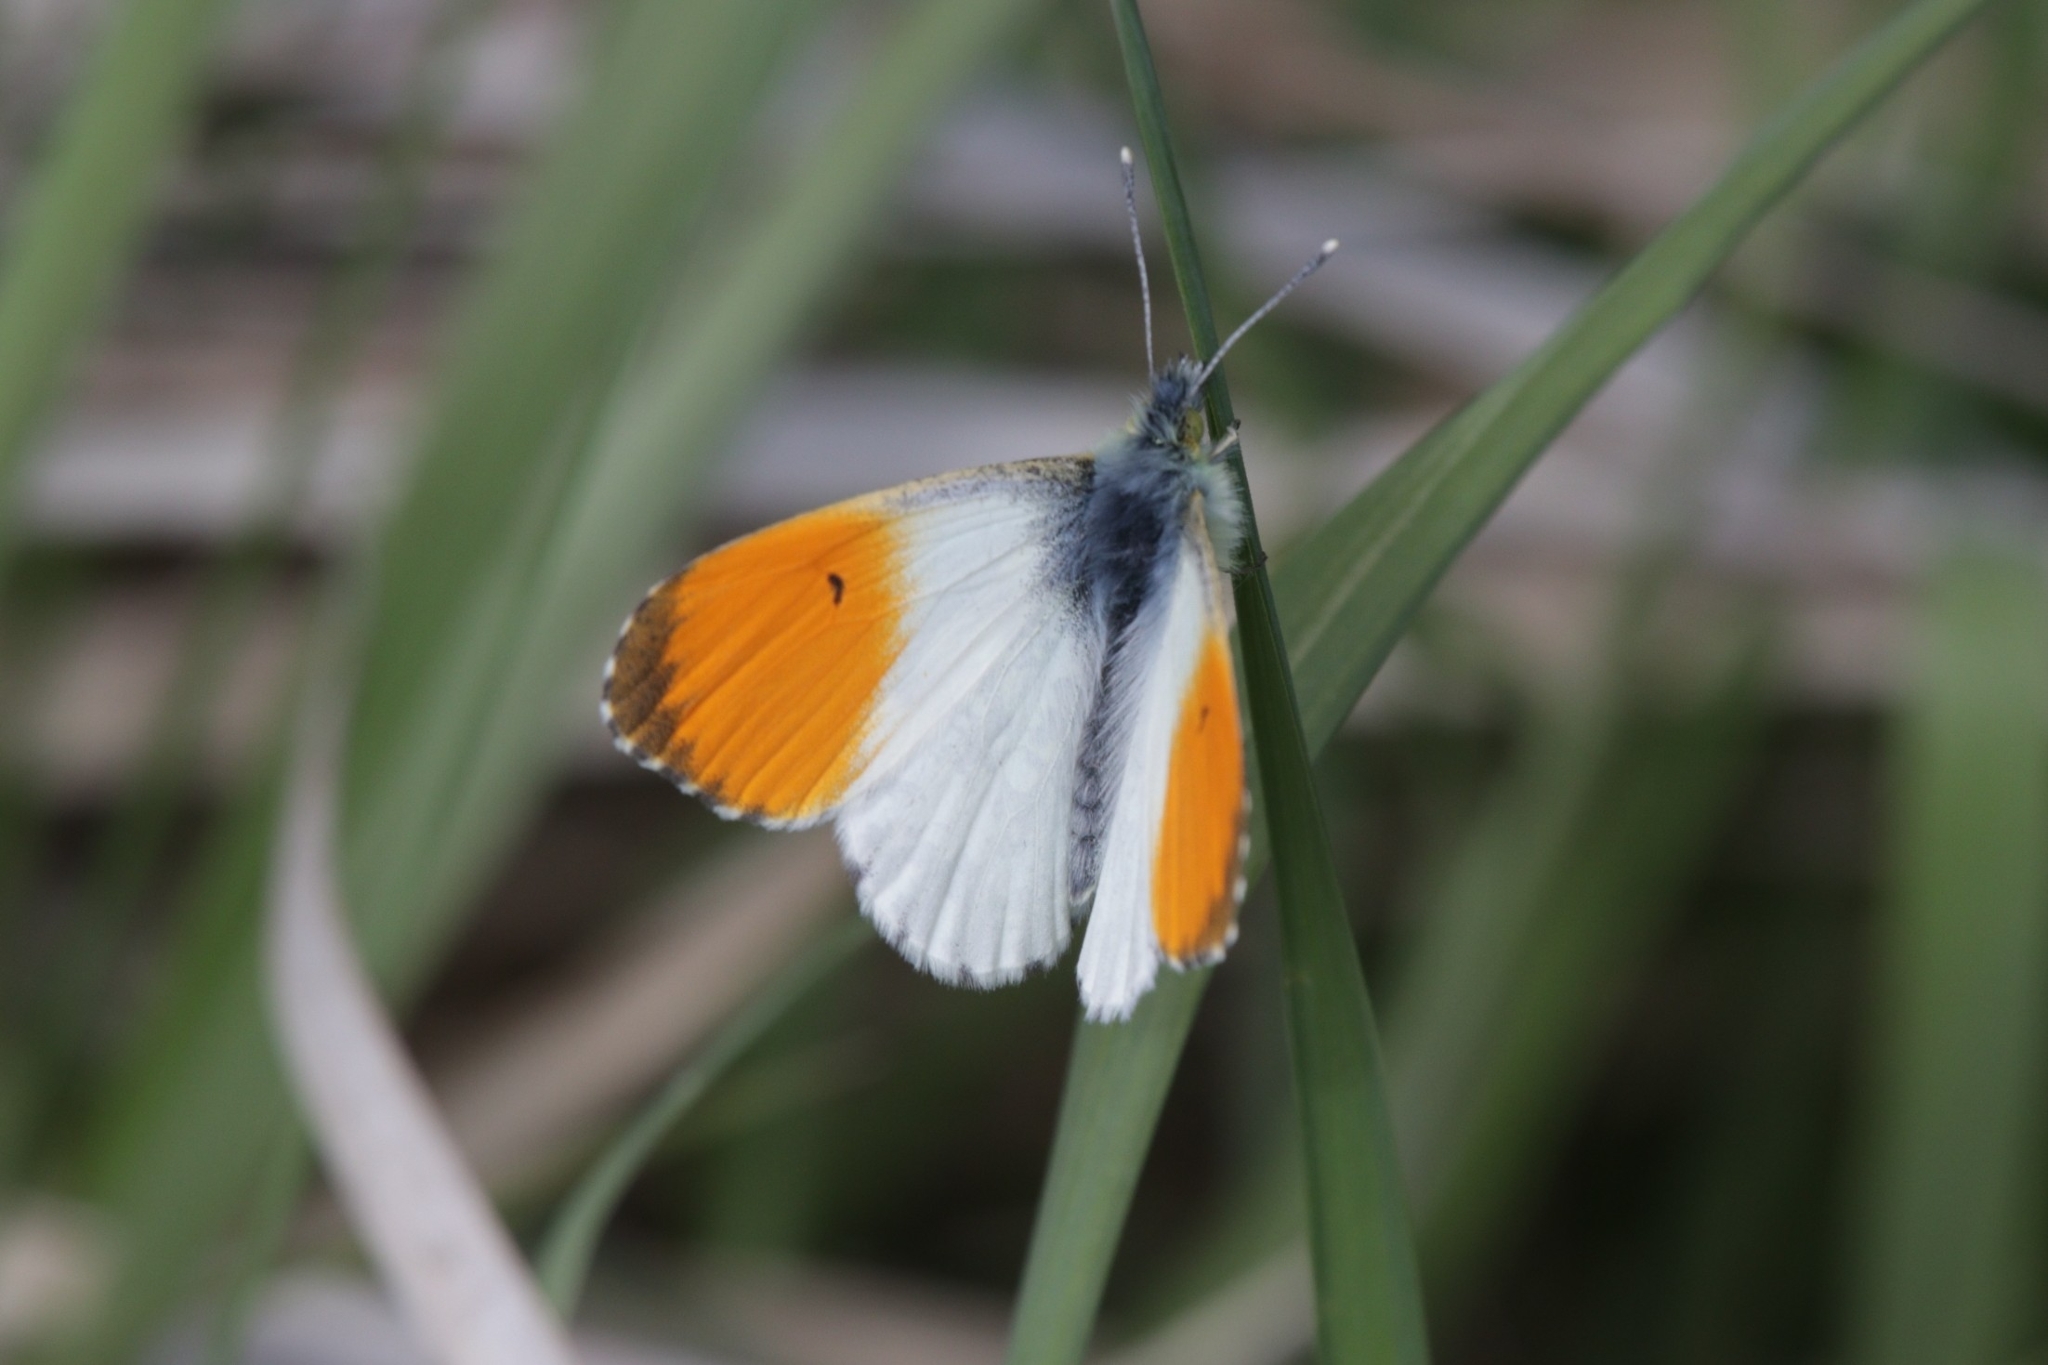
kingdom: Animalia
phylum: Arthropoda
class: Insecta
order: Lepidoptera
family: Pieridae
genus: Anthocharis
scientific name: Anthocharis cardamines
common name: Orange-tip
